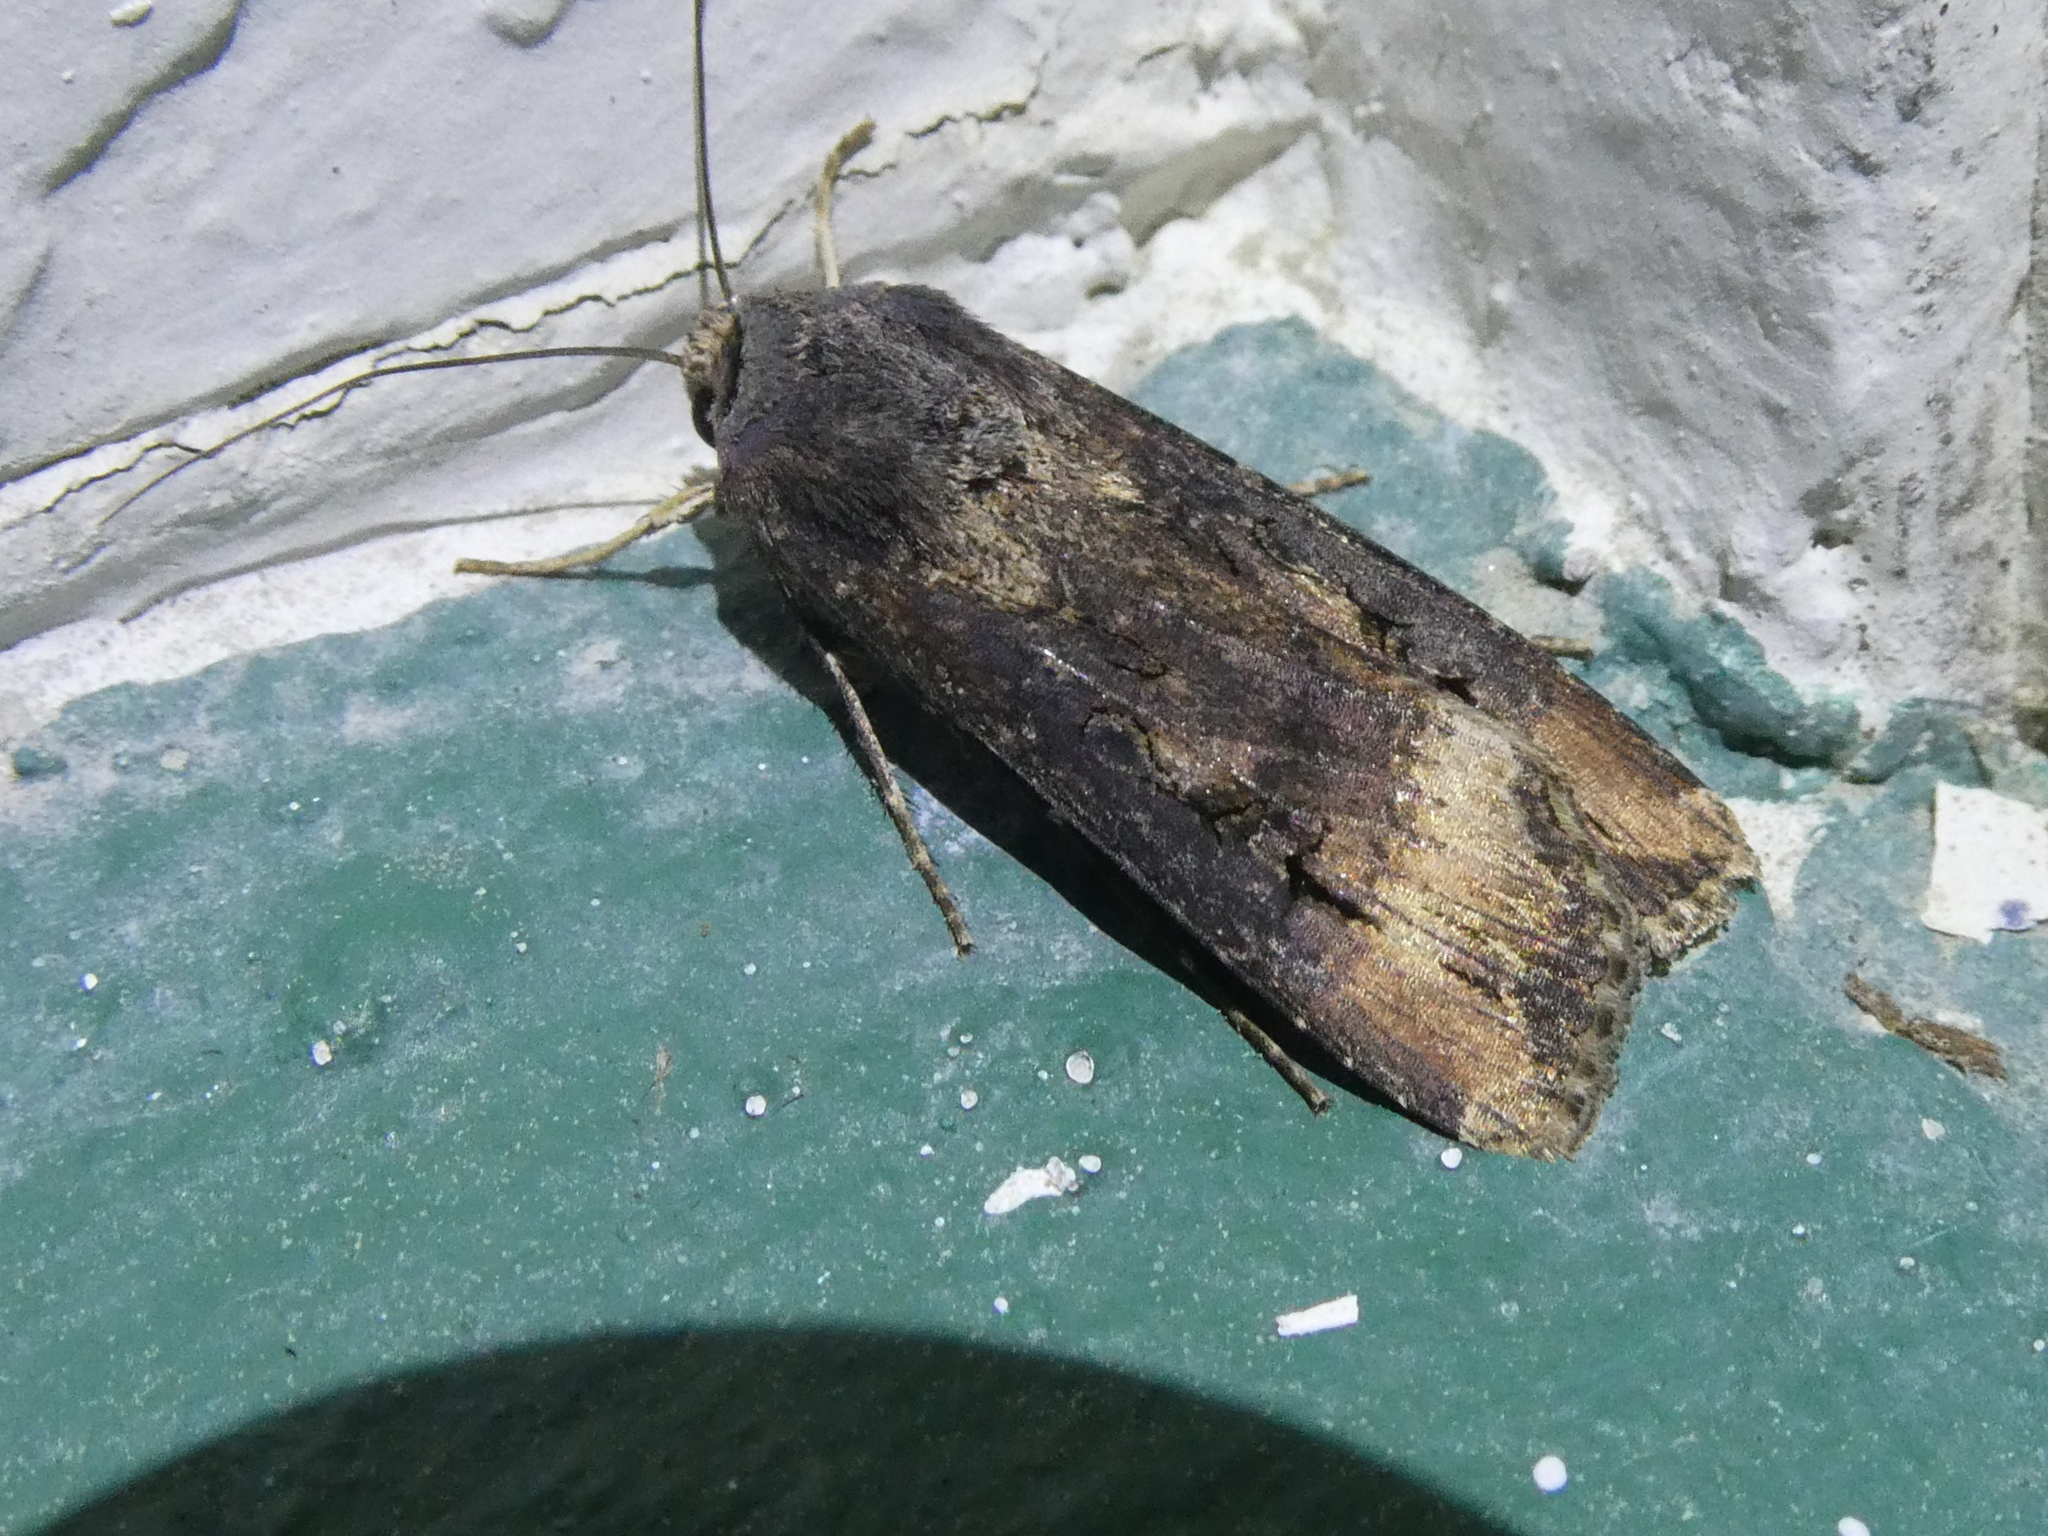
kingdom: Animalia
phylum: Arthropoda
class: Insecta
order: Lepidoptera
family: Noctuidae
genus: Agrotis
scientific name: Agrotis ipsilon
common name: Dark sword-grass
